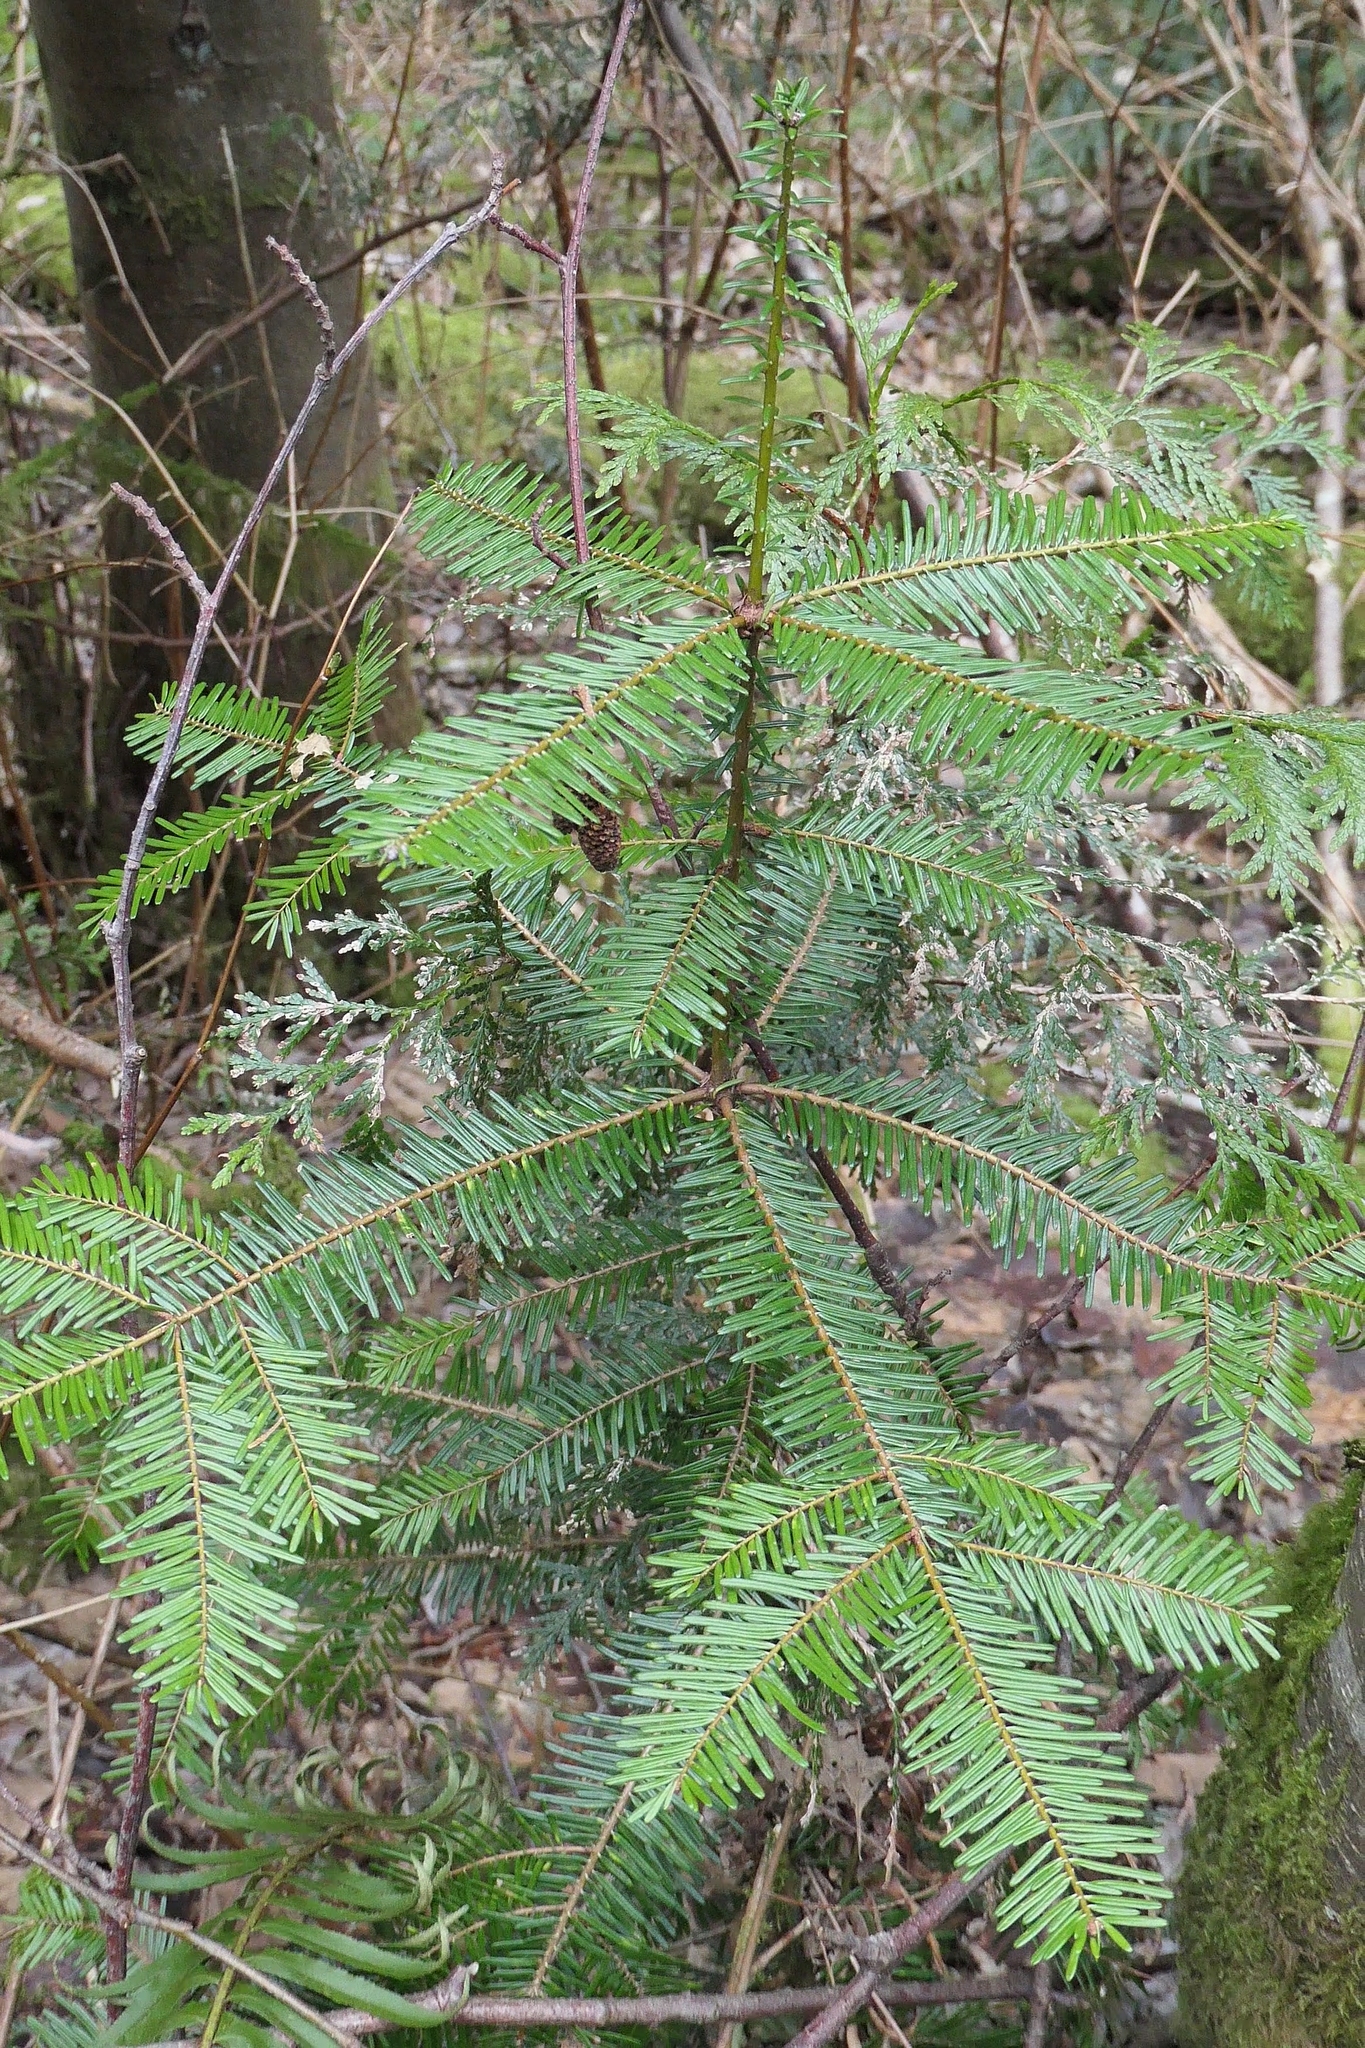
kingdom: Plantae
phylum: Tracheophyta
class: Pinopsida
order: Pinales
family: Pinaceae
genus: Abies
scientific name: Abies grandis
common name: Giant fir
